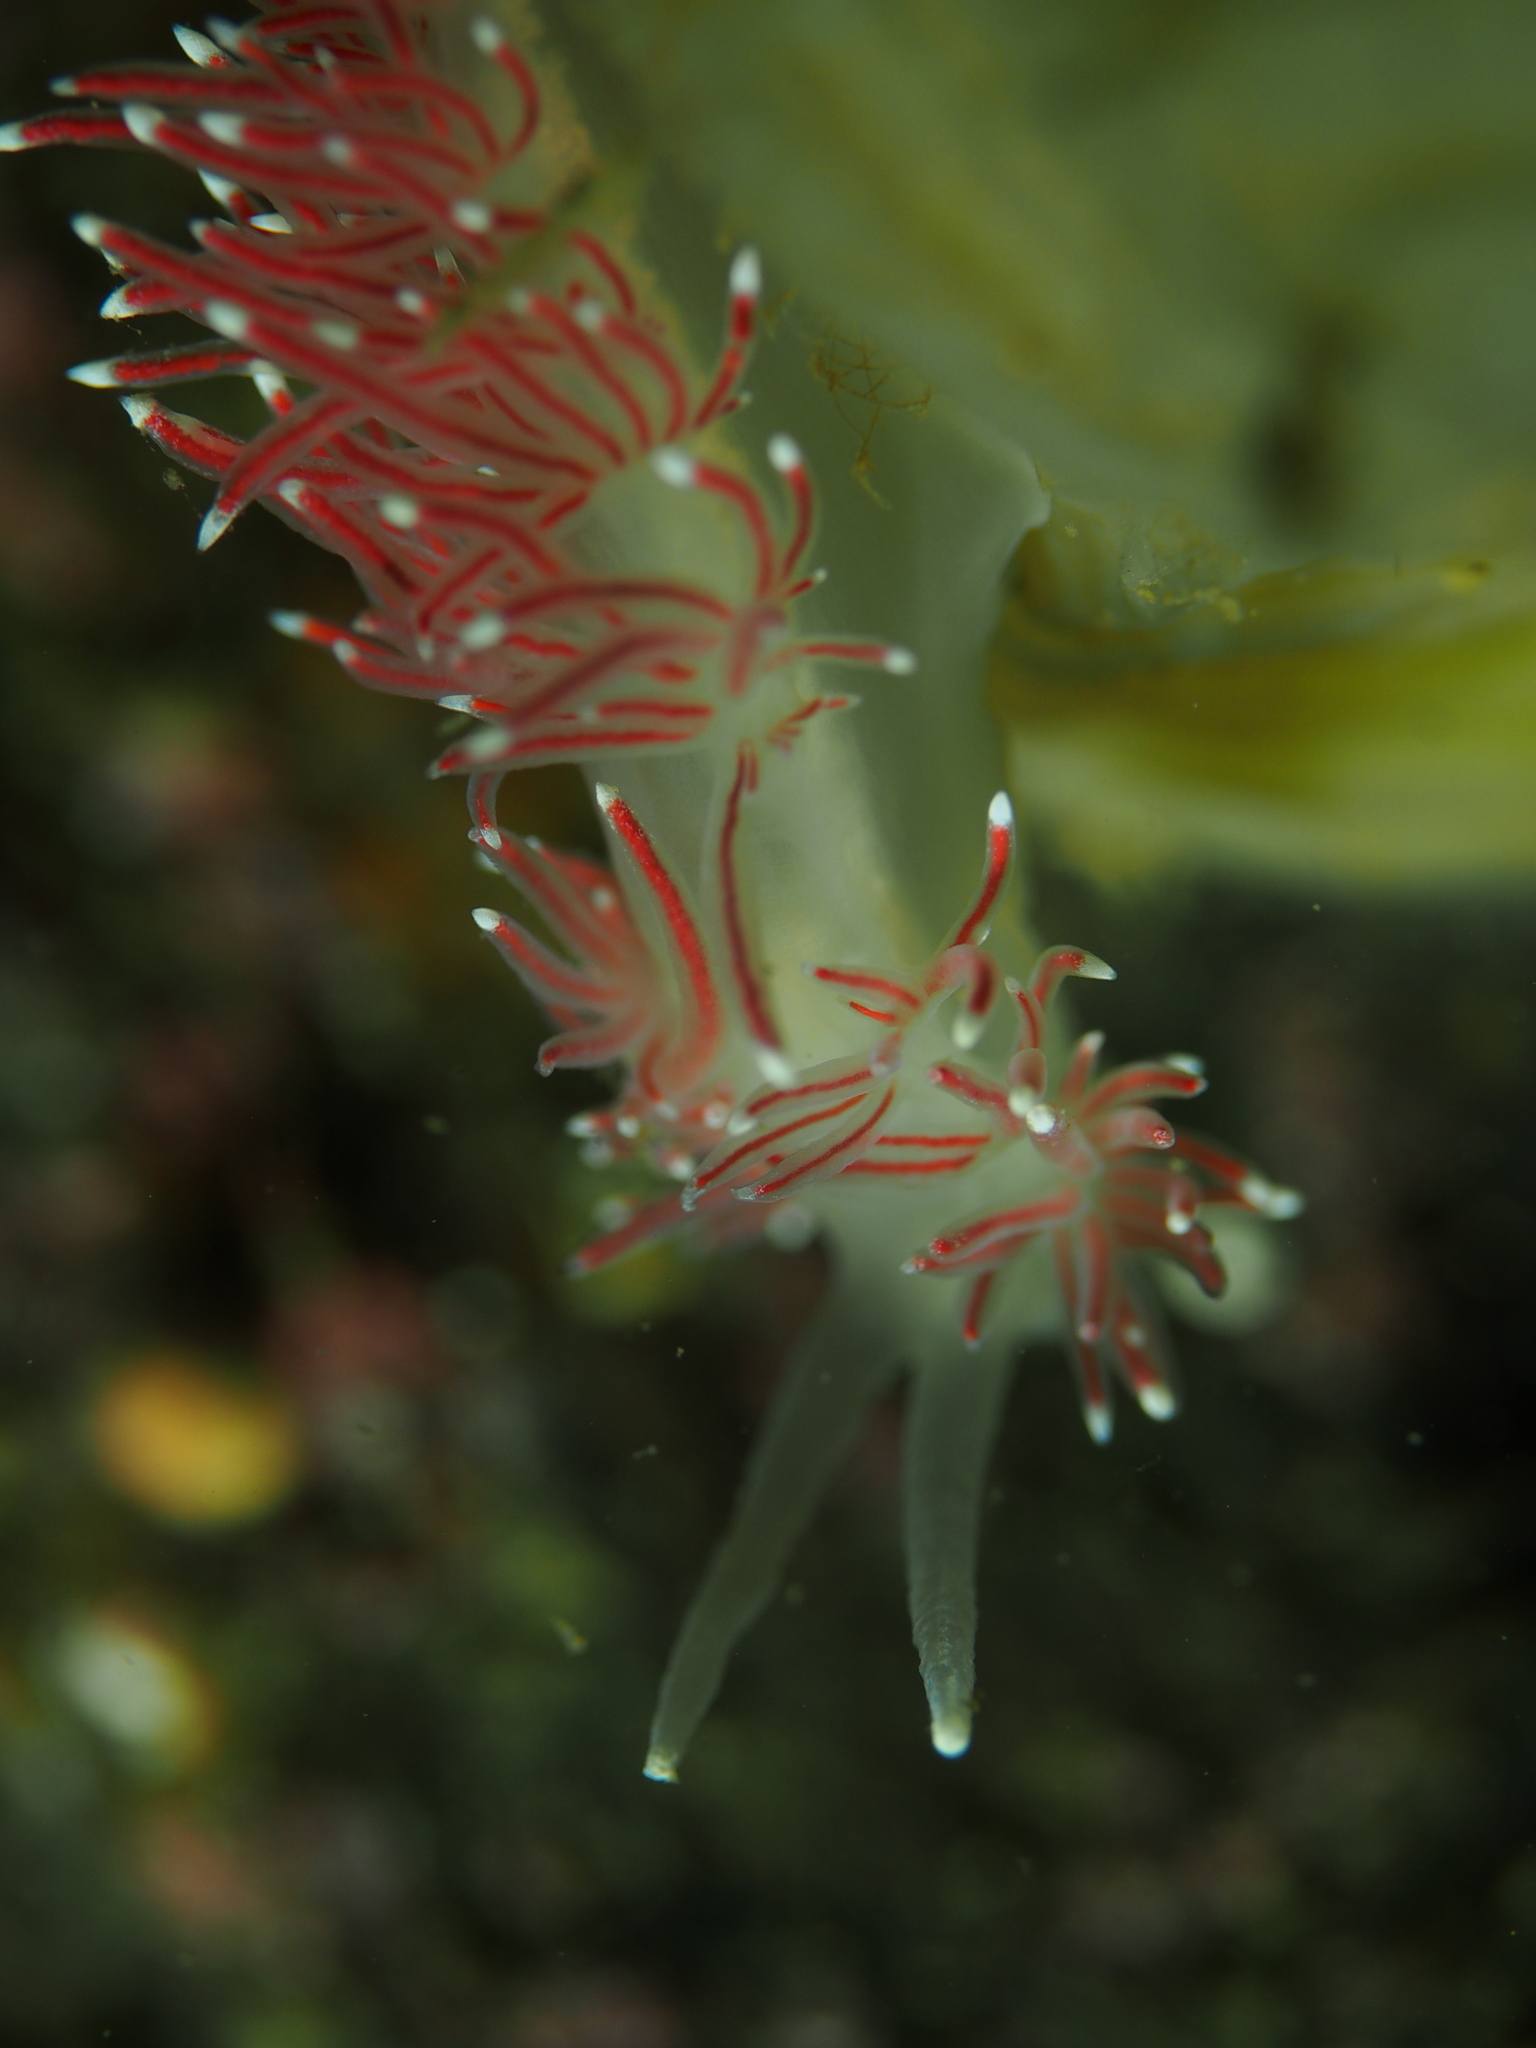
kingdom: Animalia
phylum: Mollusca
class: Gastropoda
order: Nudibranchia
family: Flabellinidae
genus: Carronella
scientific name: Carronella pellucida
